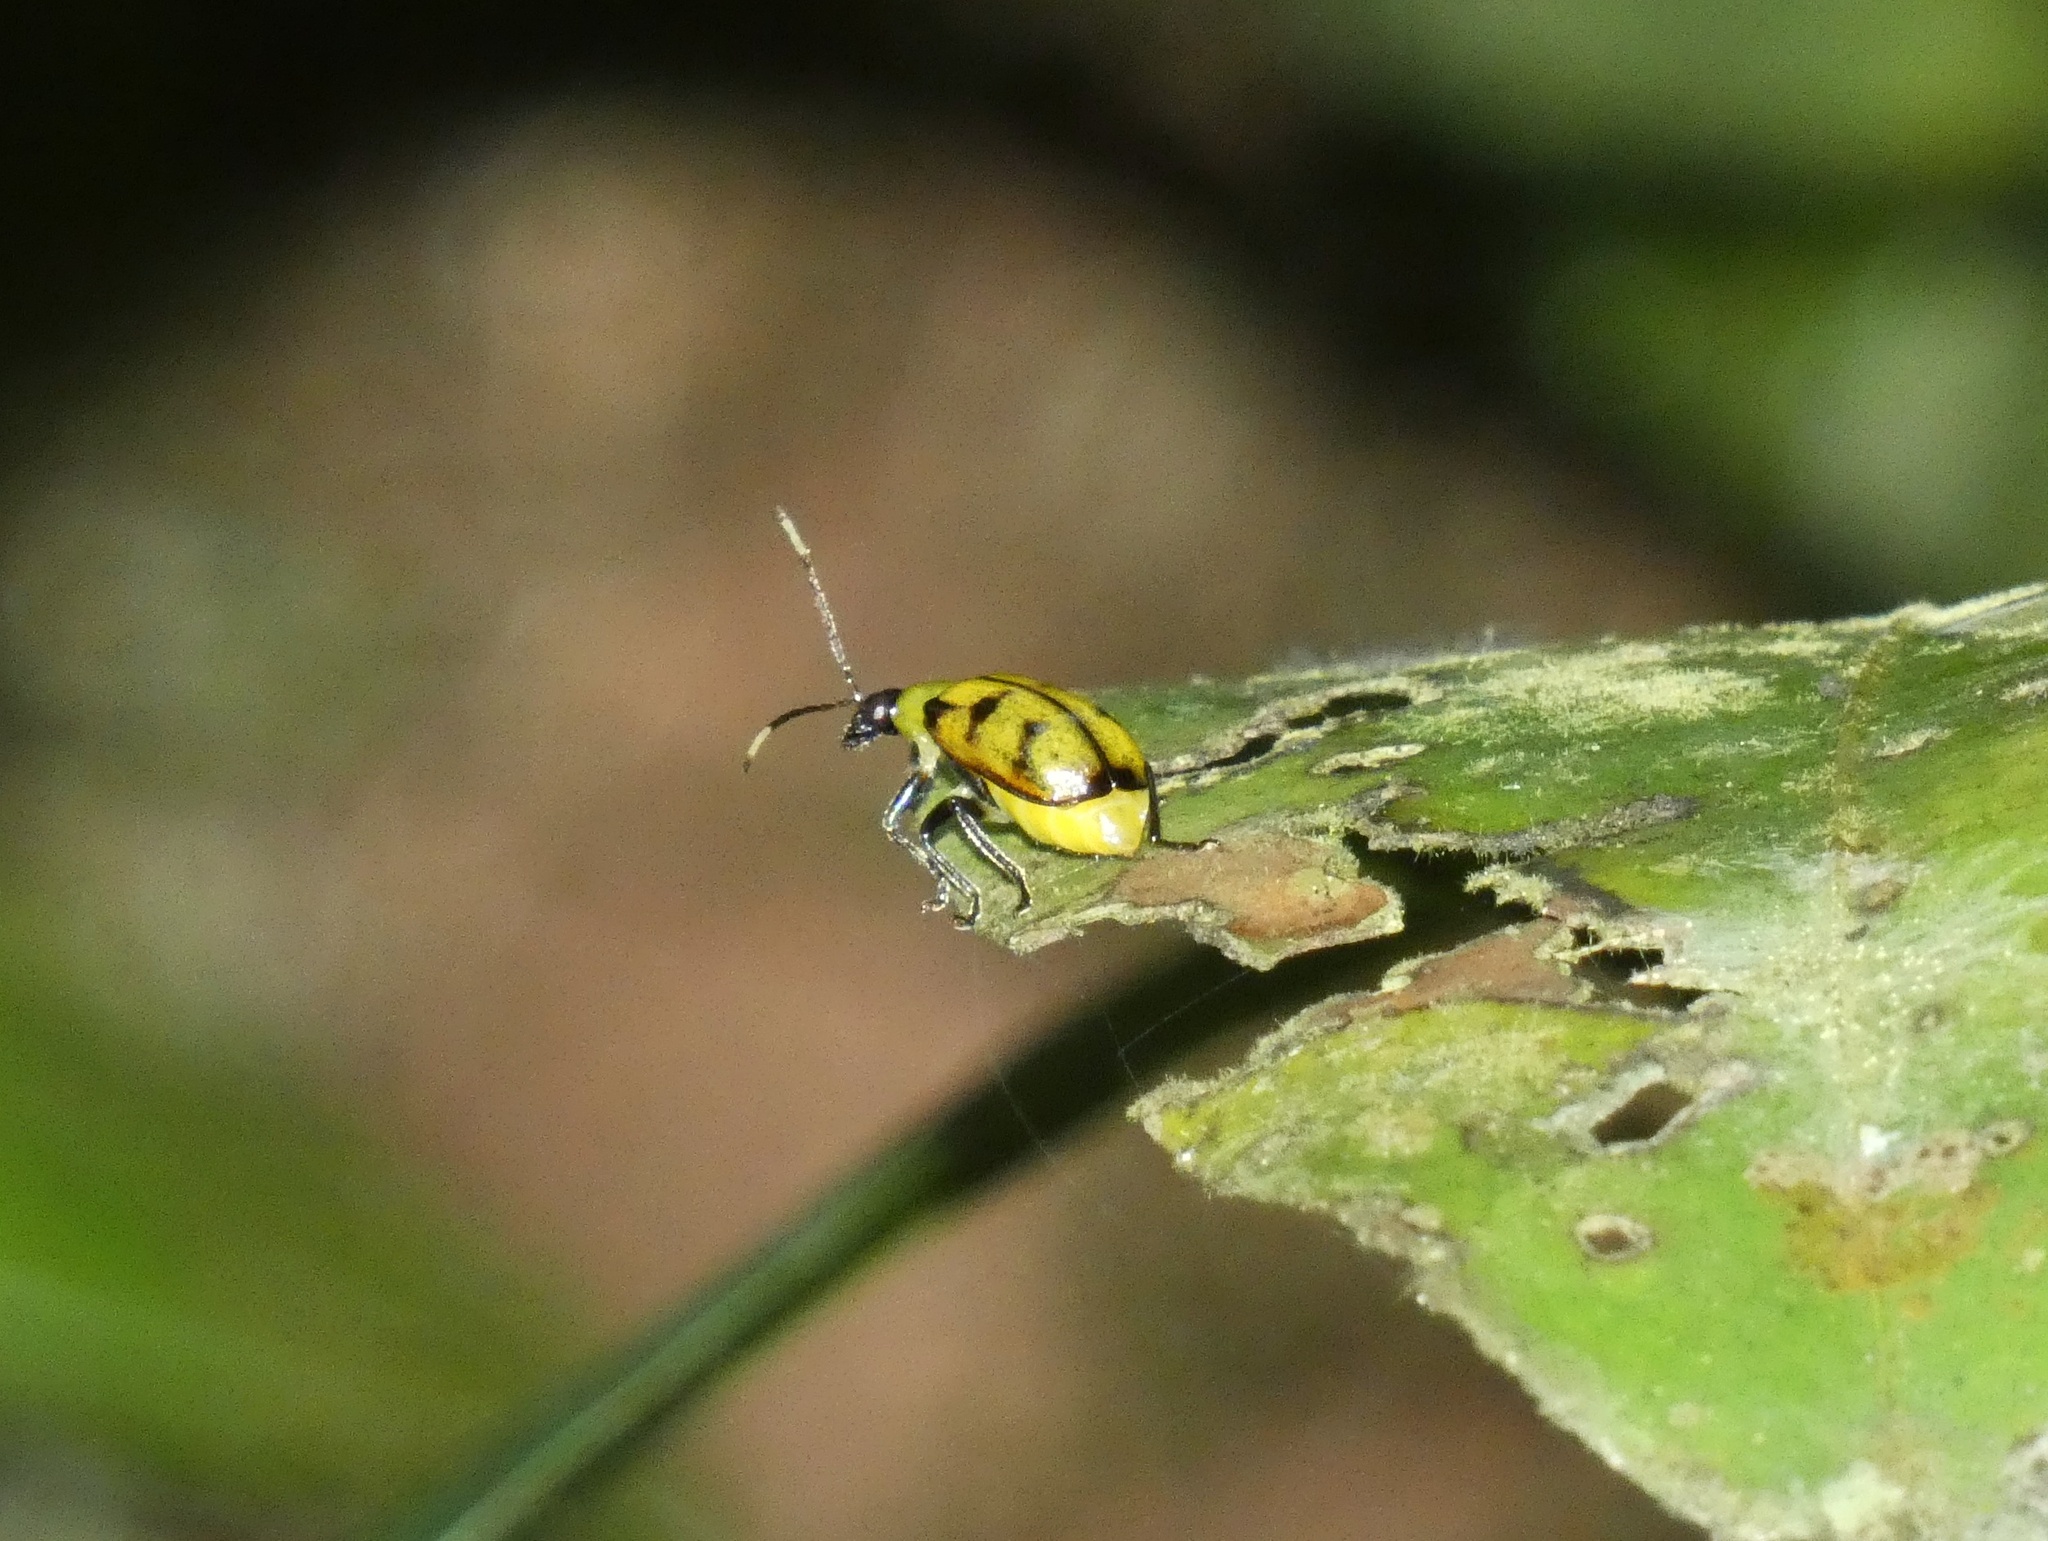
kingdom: Animalia
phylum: Arthropoda
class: Insecta
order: Coleoptera
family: Chrysomelidae
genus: Diabrotica
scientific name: Diabrotica
